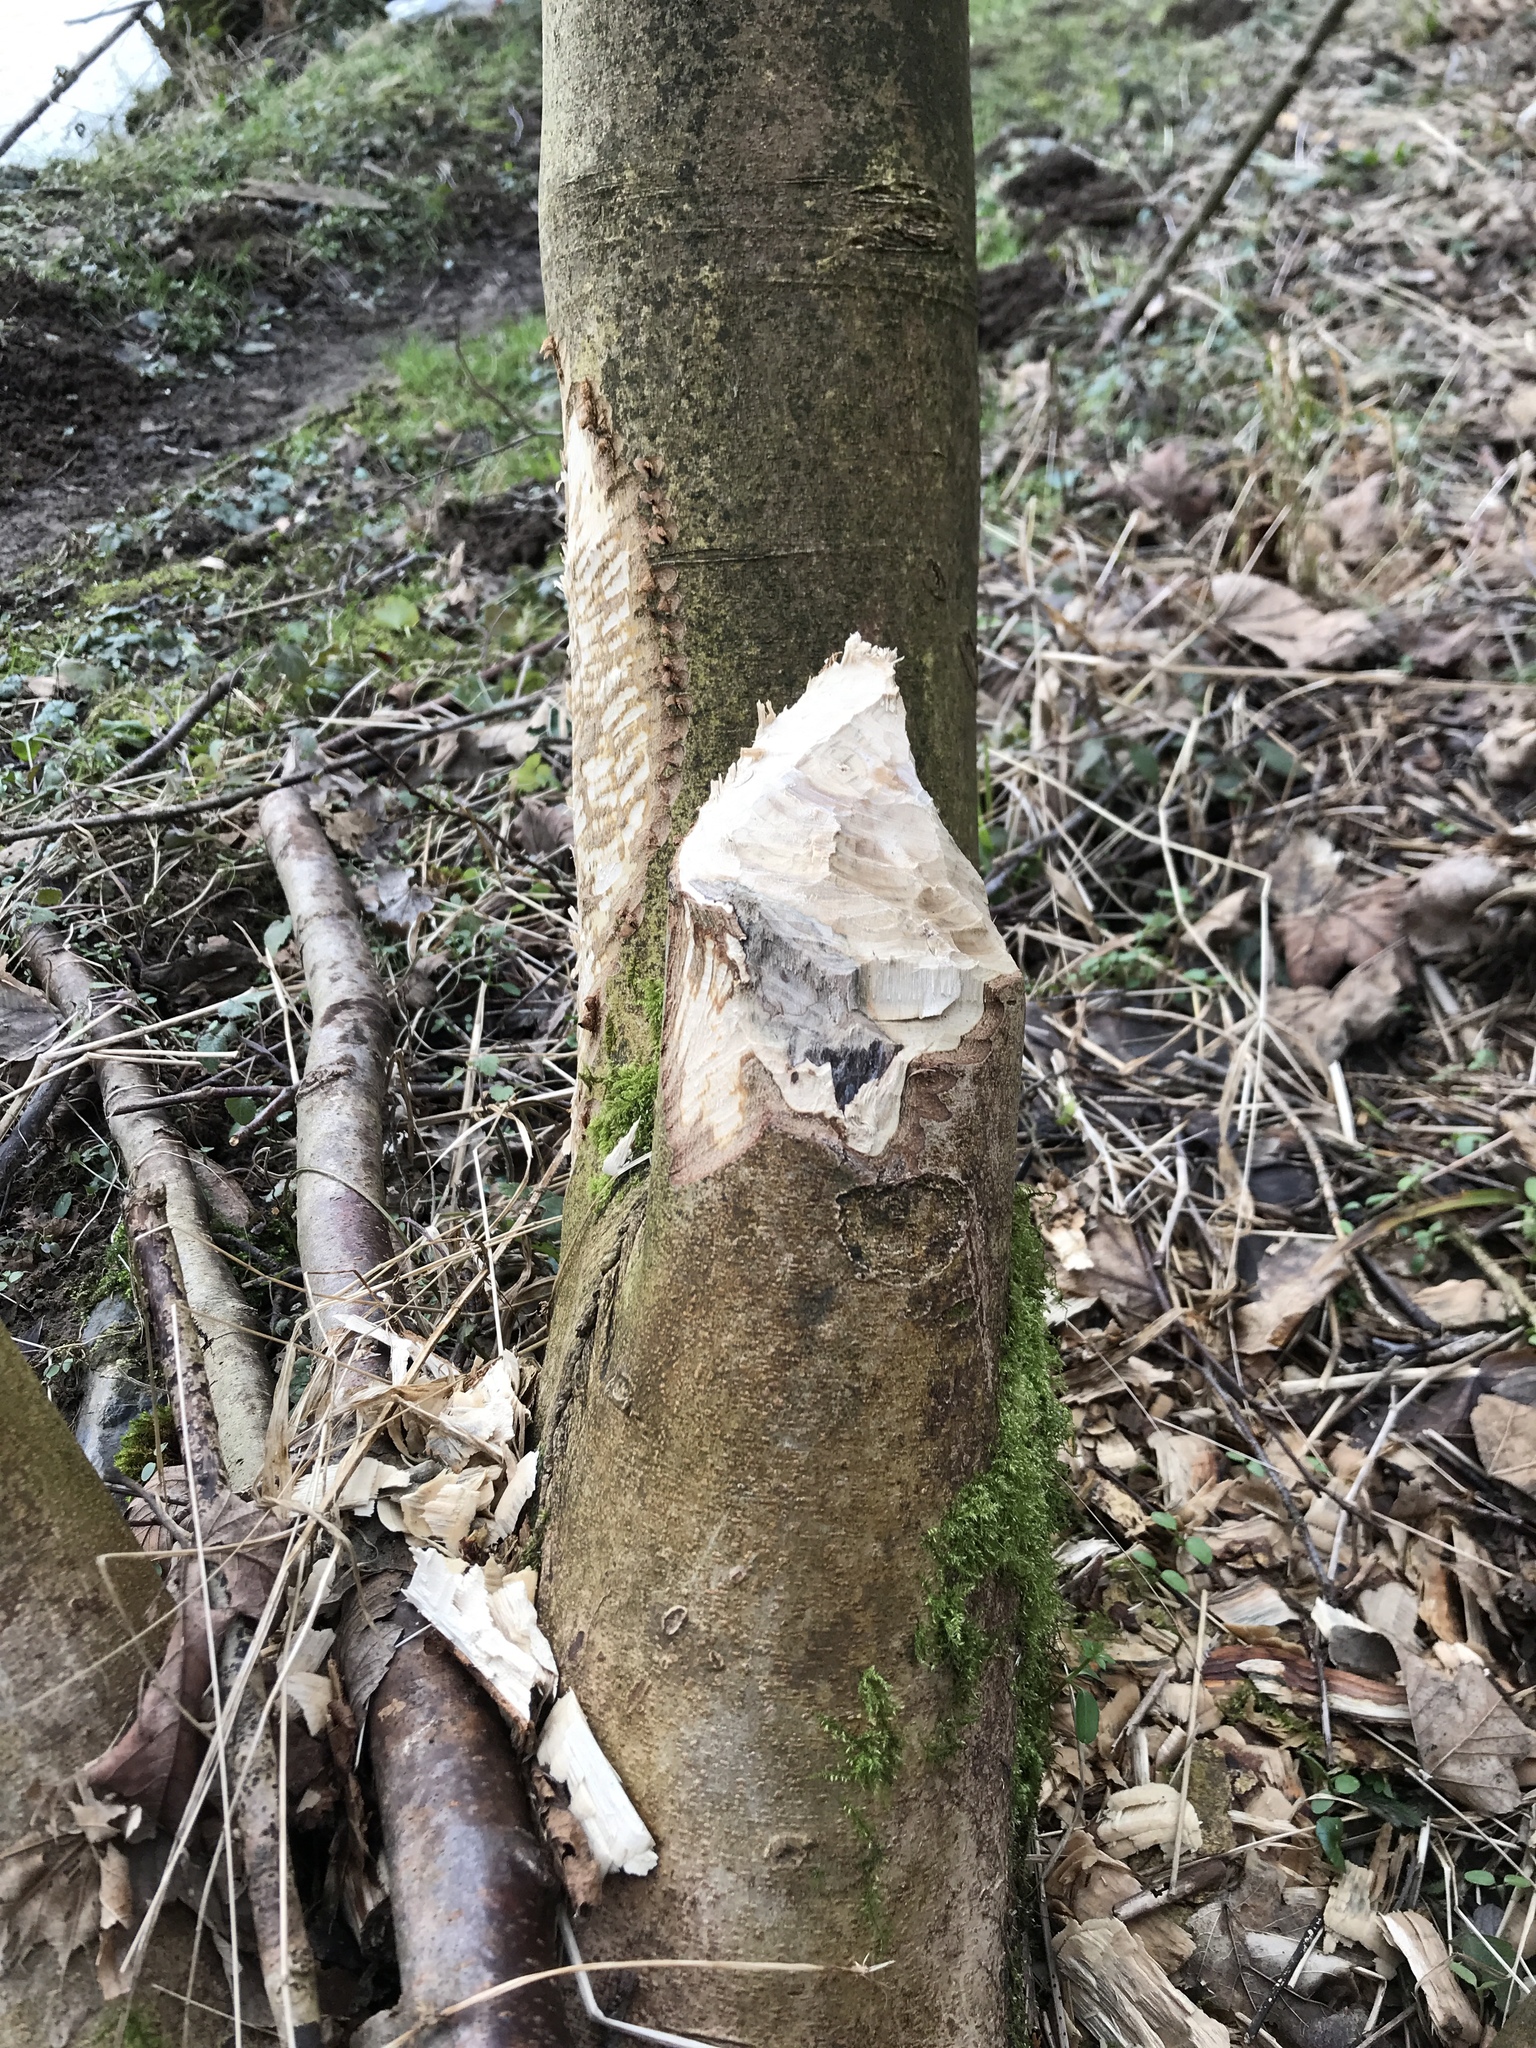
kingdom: Animalia
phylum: Chordata
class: Mammalia
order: Rodentia
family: Castoridae
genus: Castor
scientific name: Castor fiber
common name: Eurasian beaver
